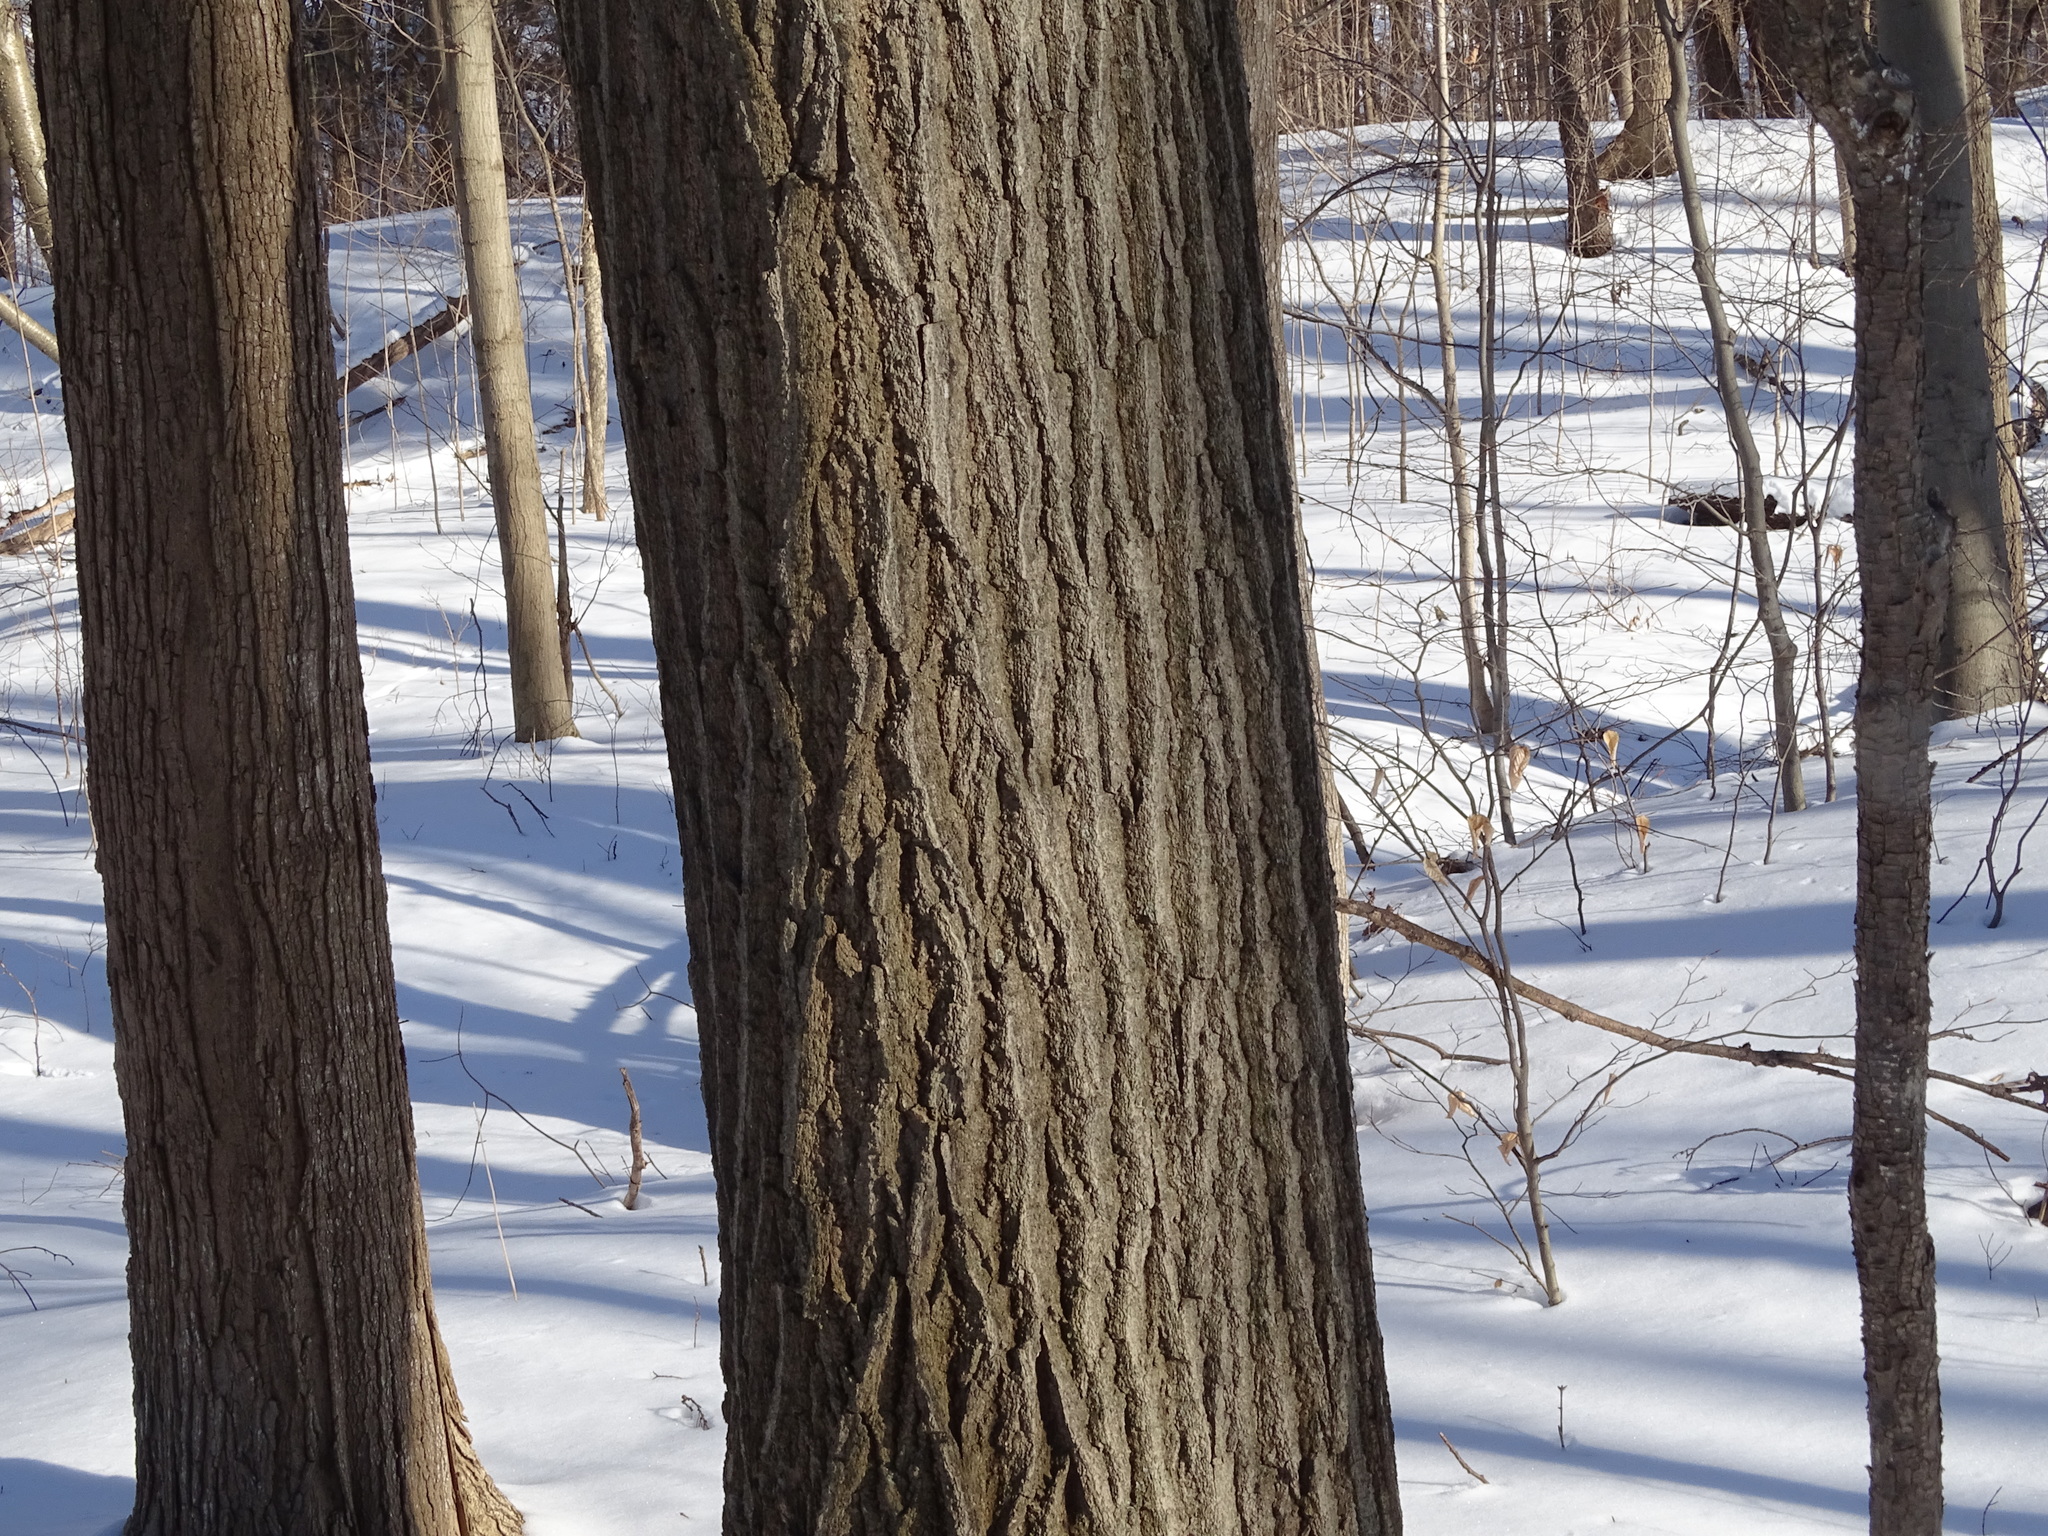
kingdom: Plantae
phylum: Tracheophyta
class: Magnoliopsida
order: Fagales
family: Fagaceae
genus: Quercus
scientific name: Quercus rubra
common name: Red oak
